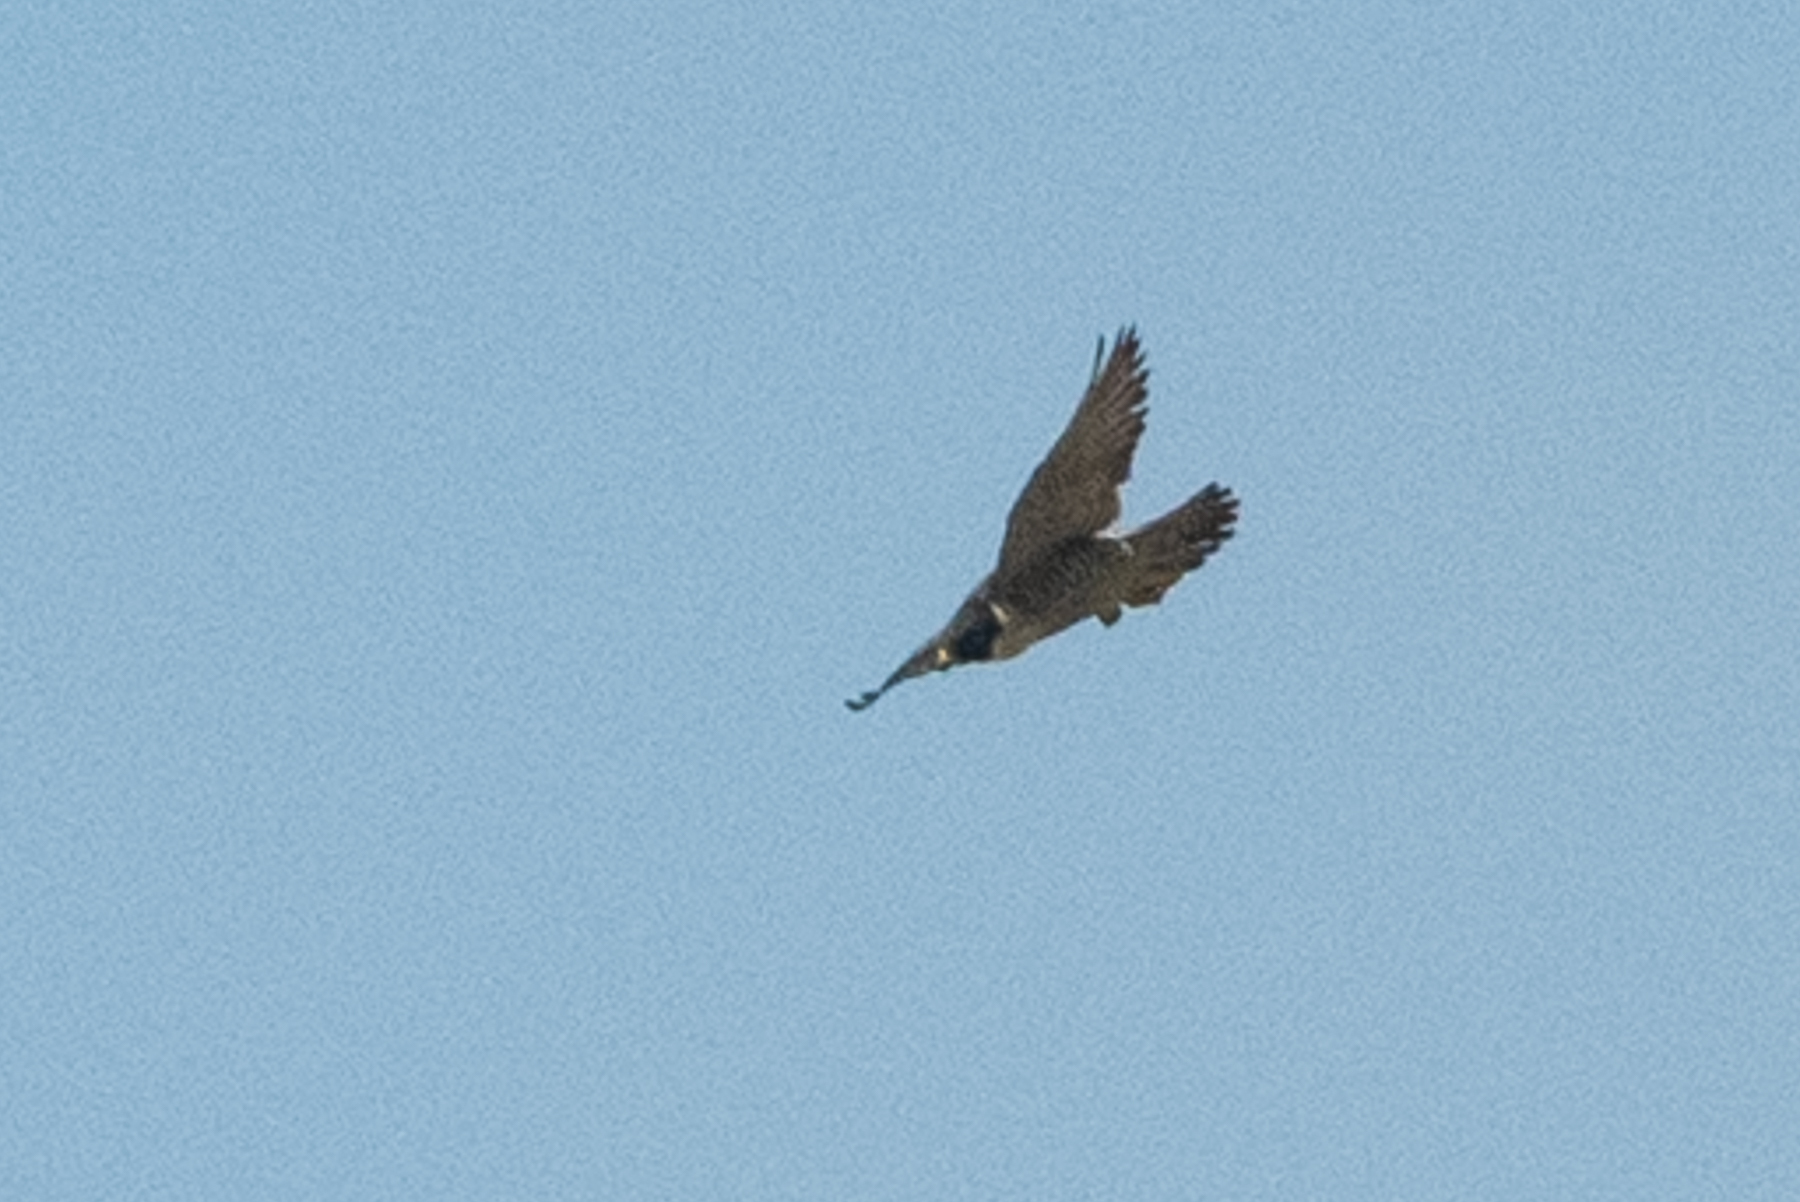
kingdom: Animalia
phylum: Chordata
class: Aves
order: Falconiformes
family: Falconidae
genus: Falco
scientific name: Falco peregrinus
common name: Peregrine falcon
